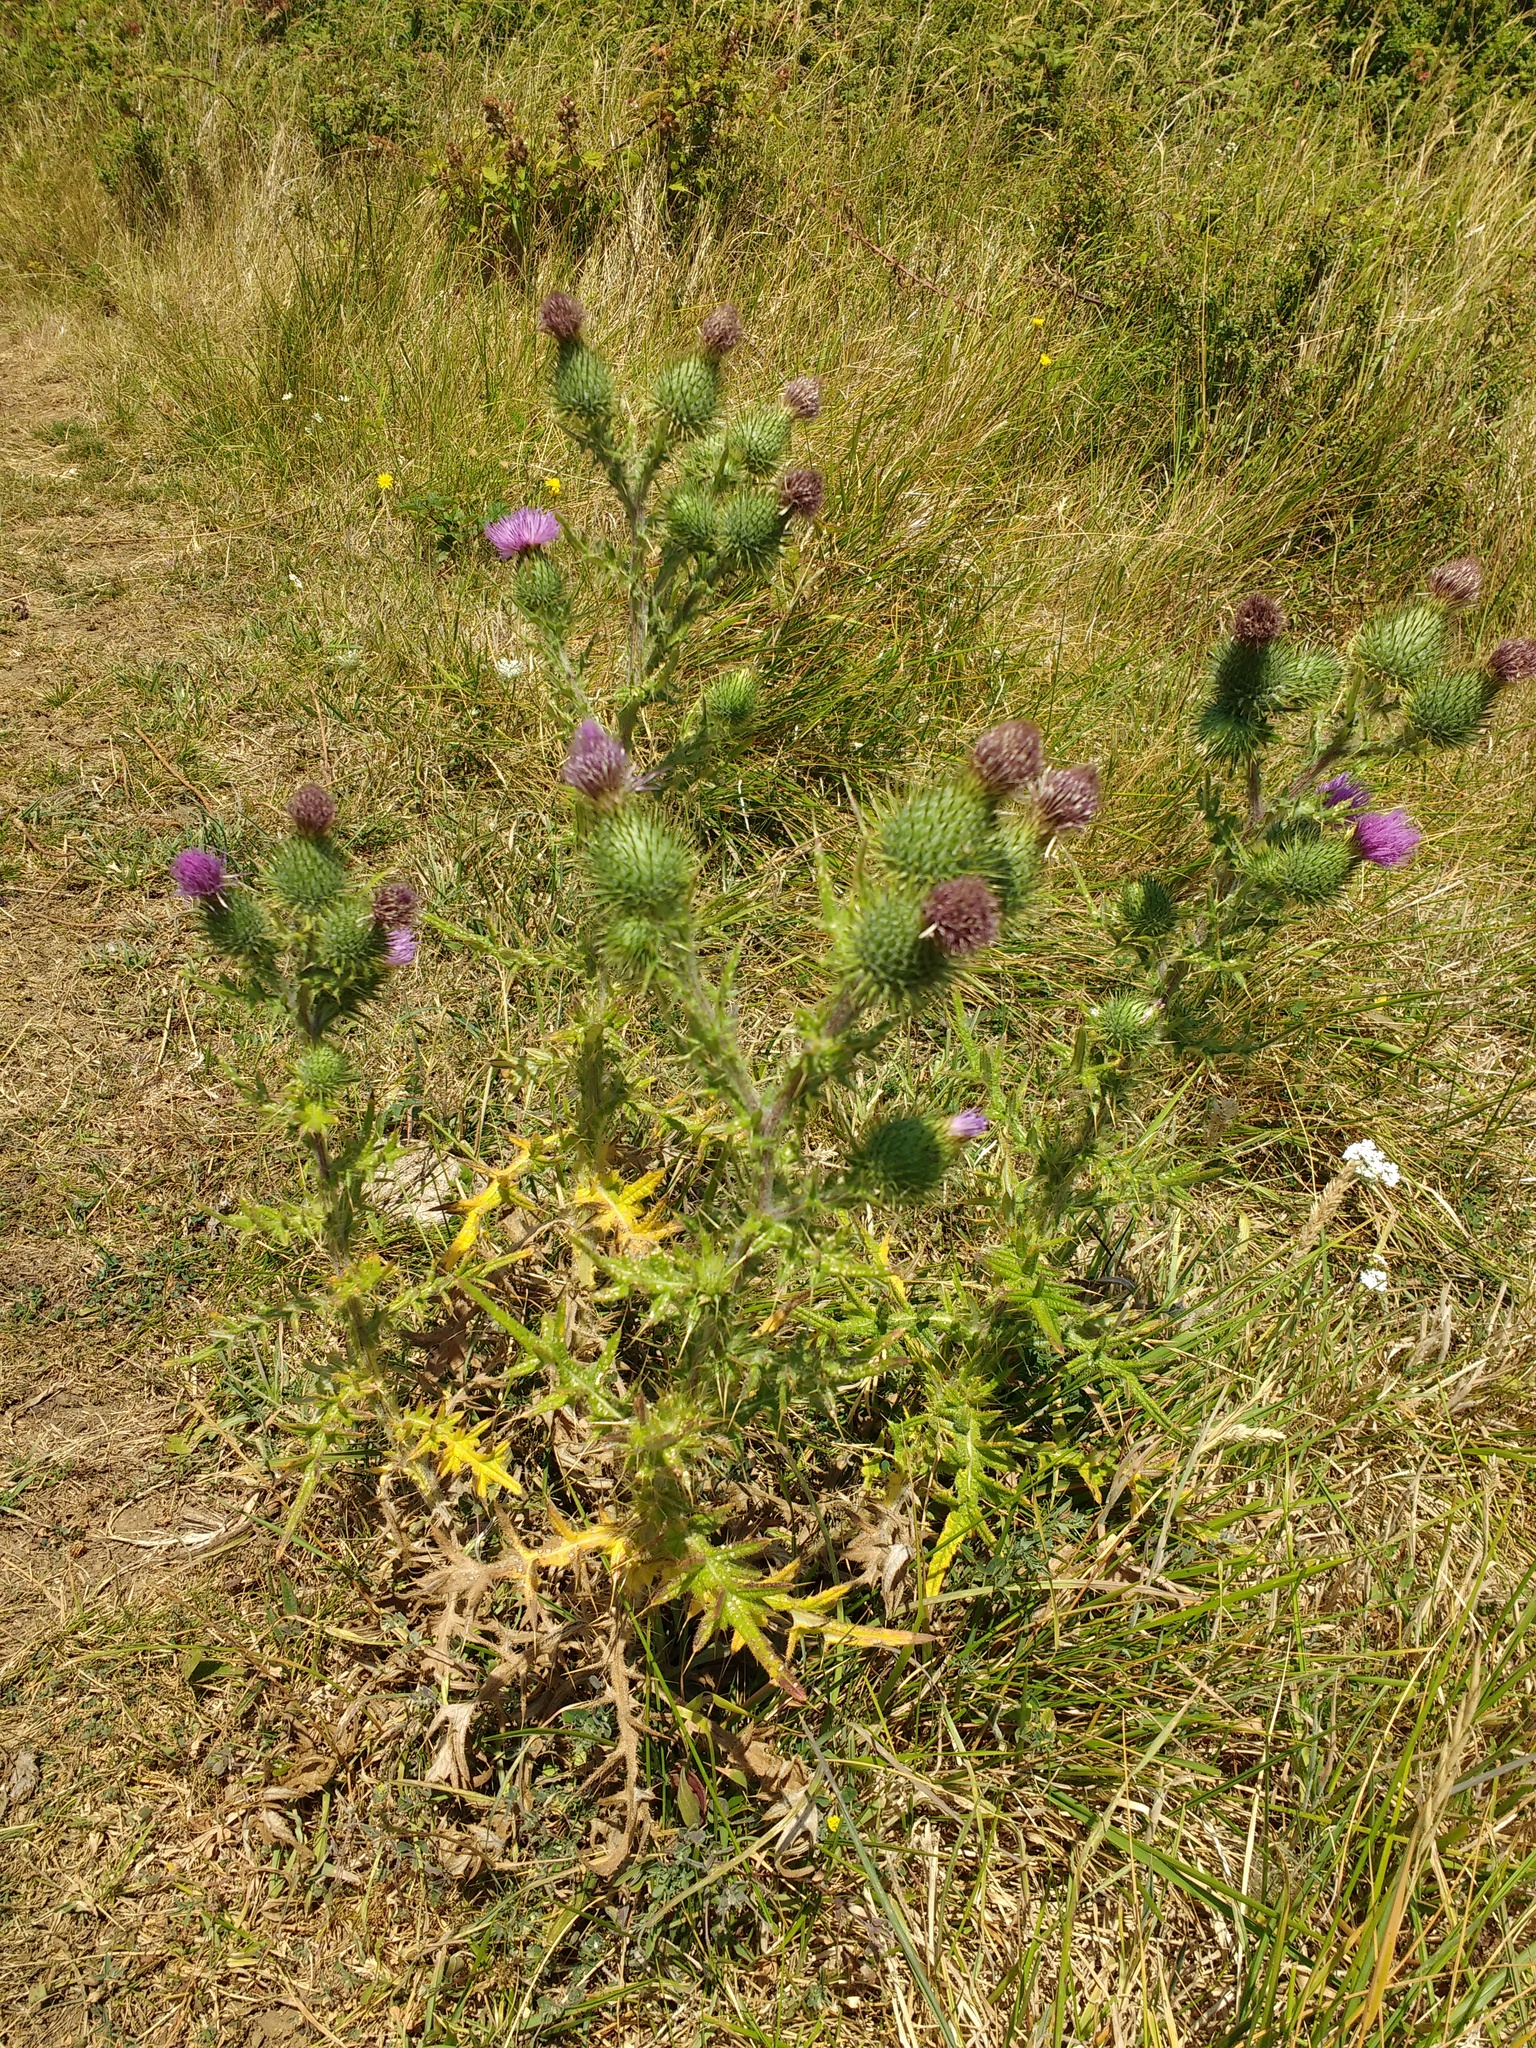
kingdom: Plantae
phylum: Tracheophyta
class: Magnoliopsida
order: Asterales
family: Asteraceae
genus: Cirsium
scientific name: Cirsium vulgare
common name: Bull thistle
